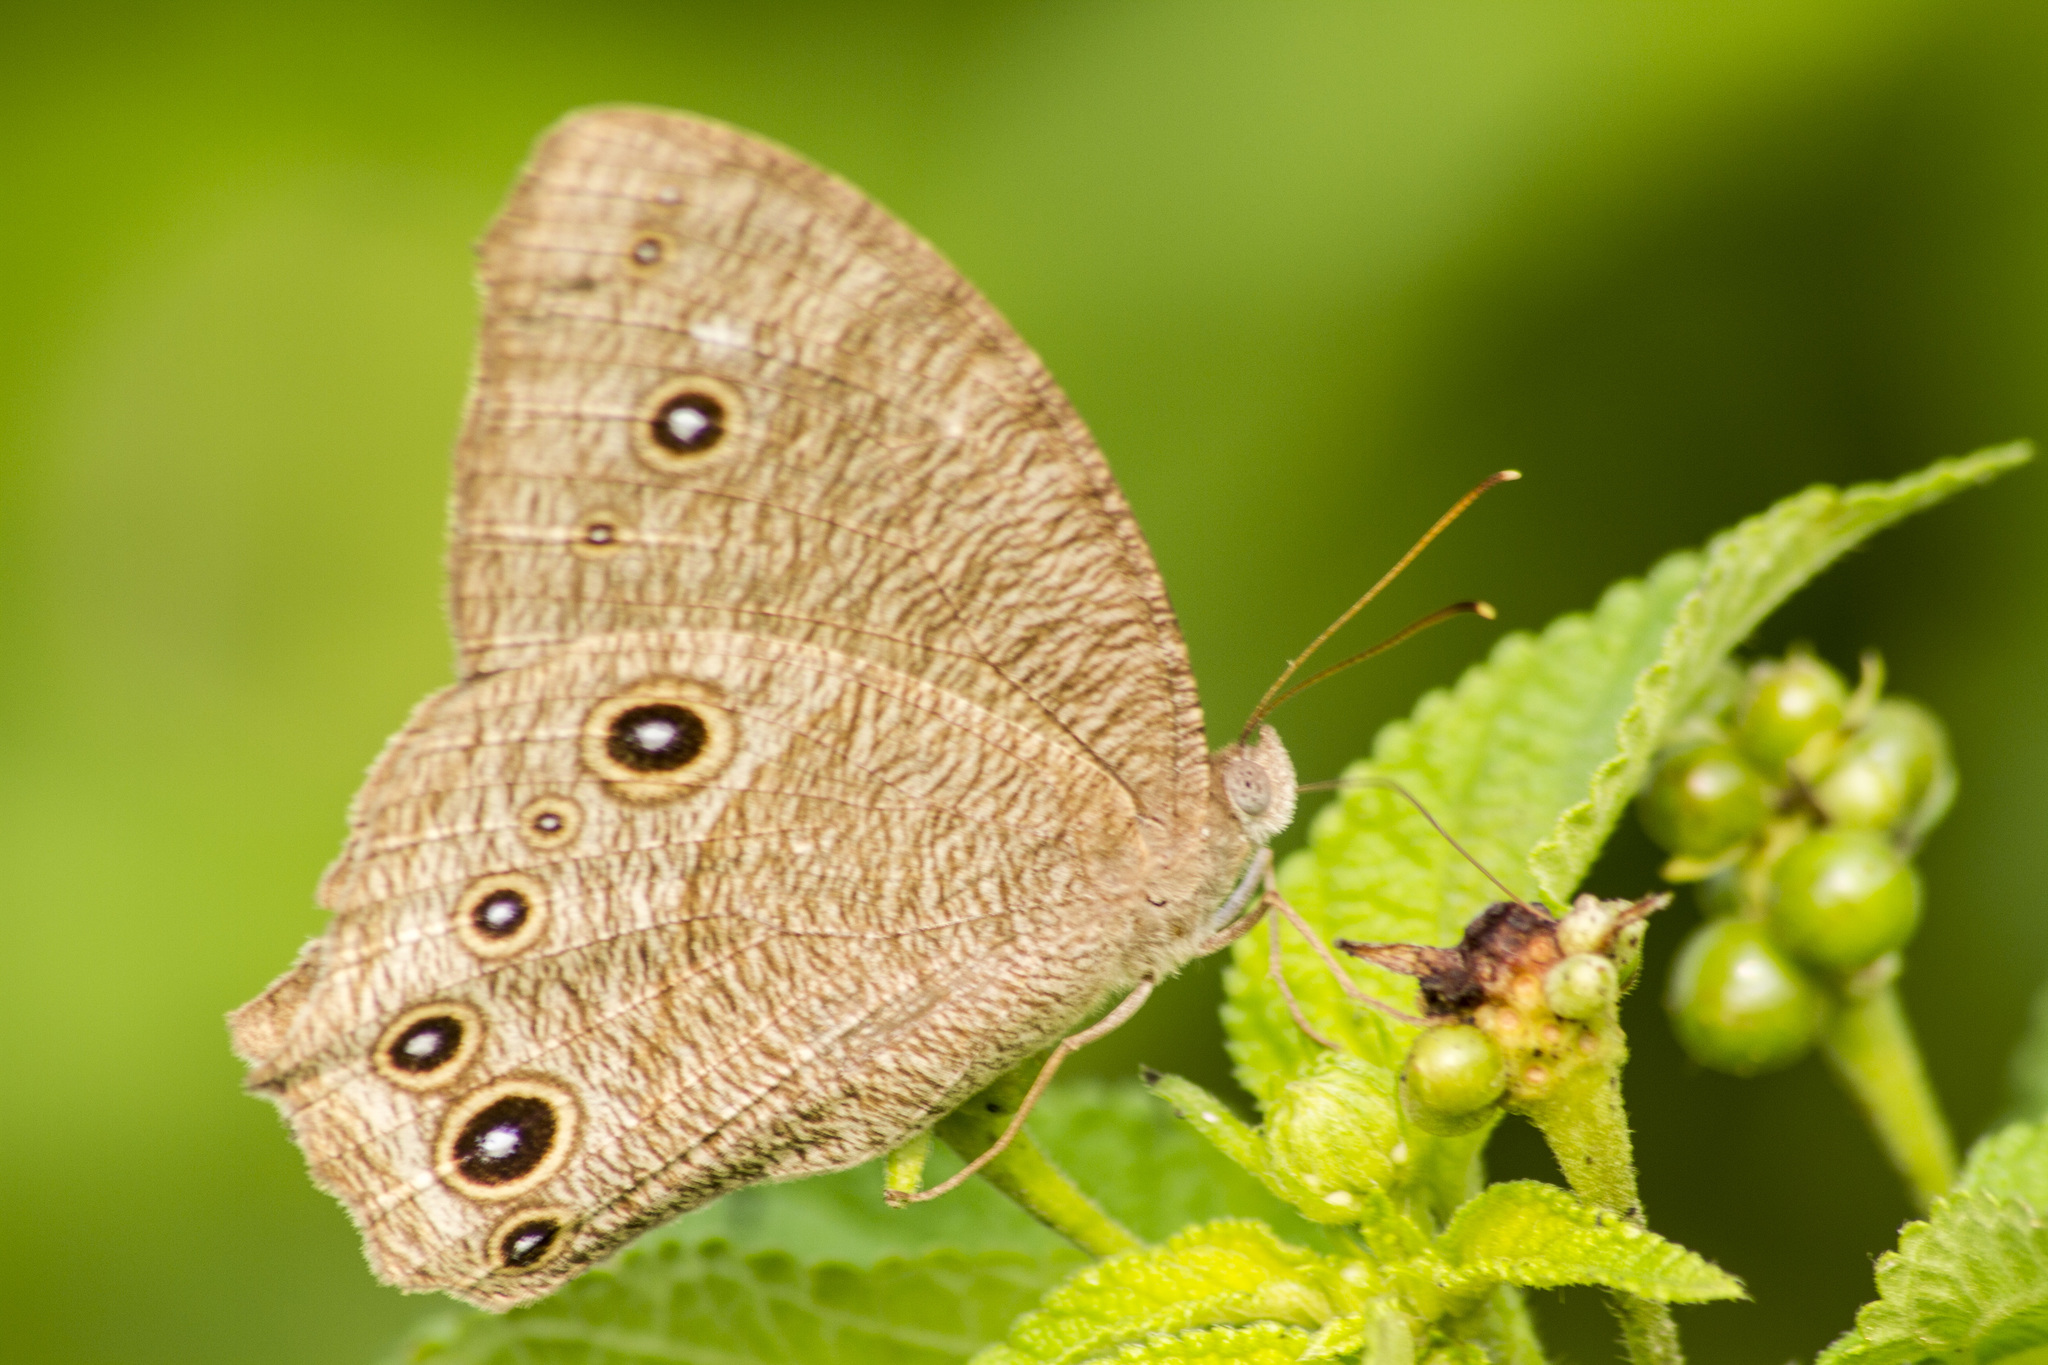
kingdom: Animalia
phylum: Arthropoda
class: Insecta
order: Lepidoptera
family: Nymphalidae
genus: Melanitis
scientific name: Melanitis leda
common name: Twilight brown
